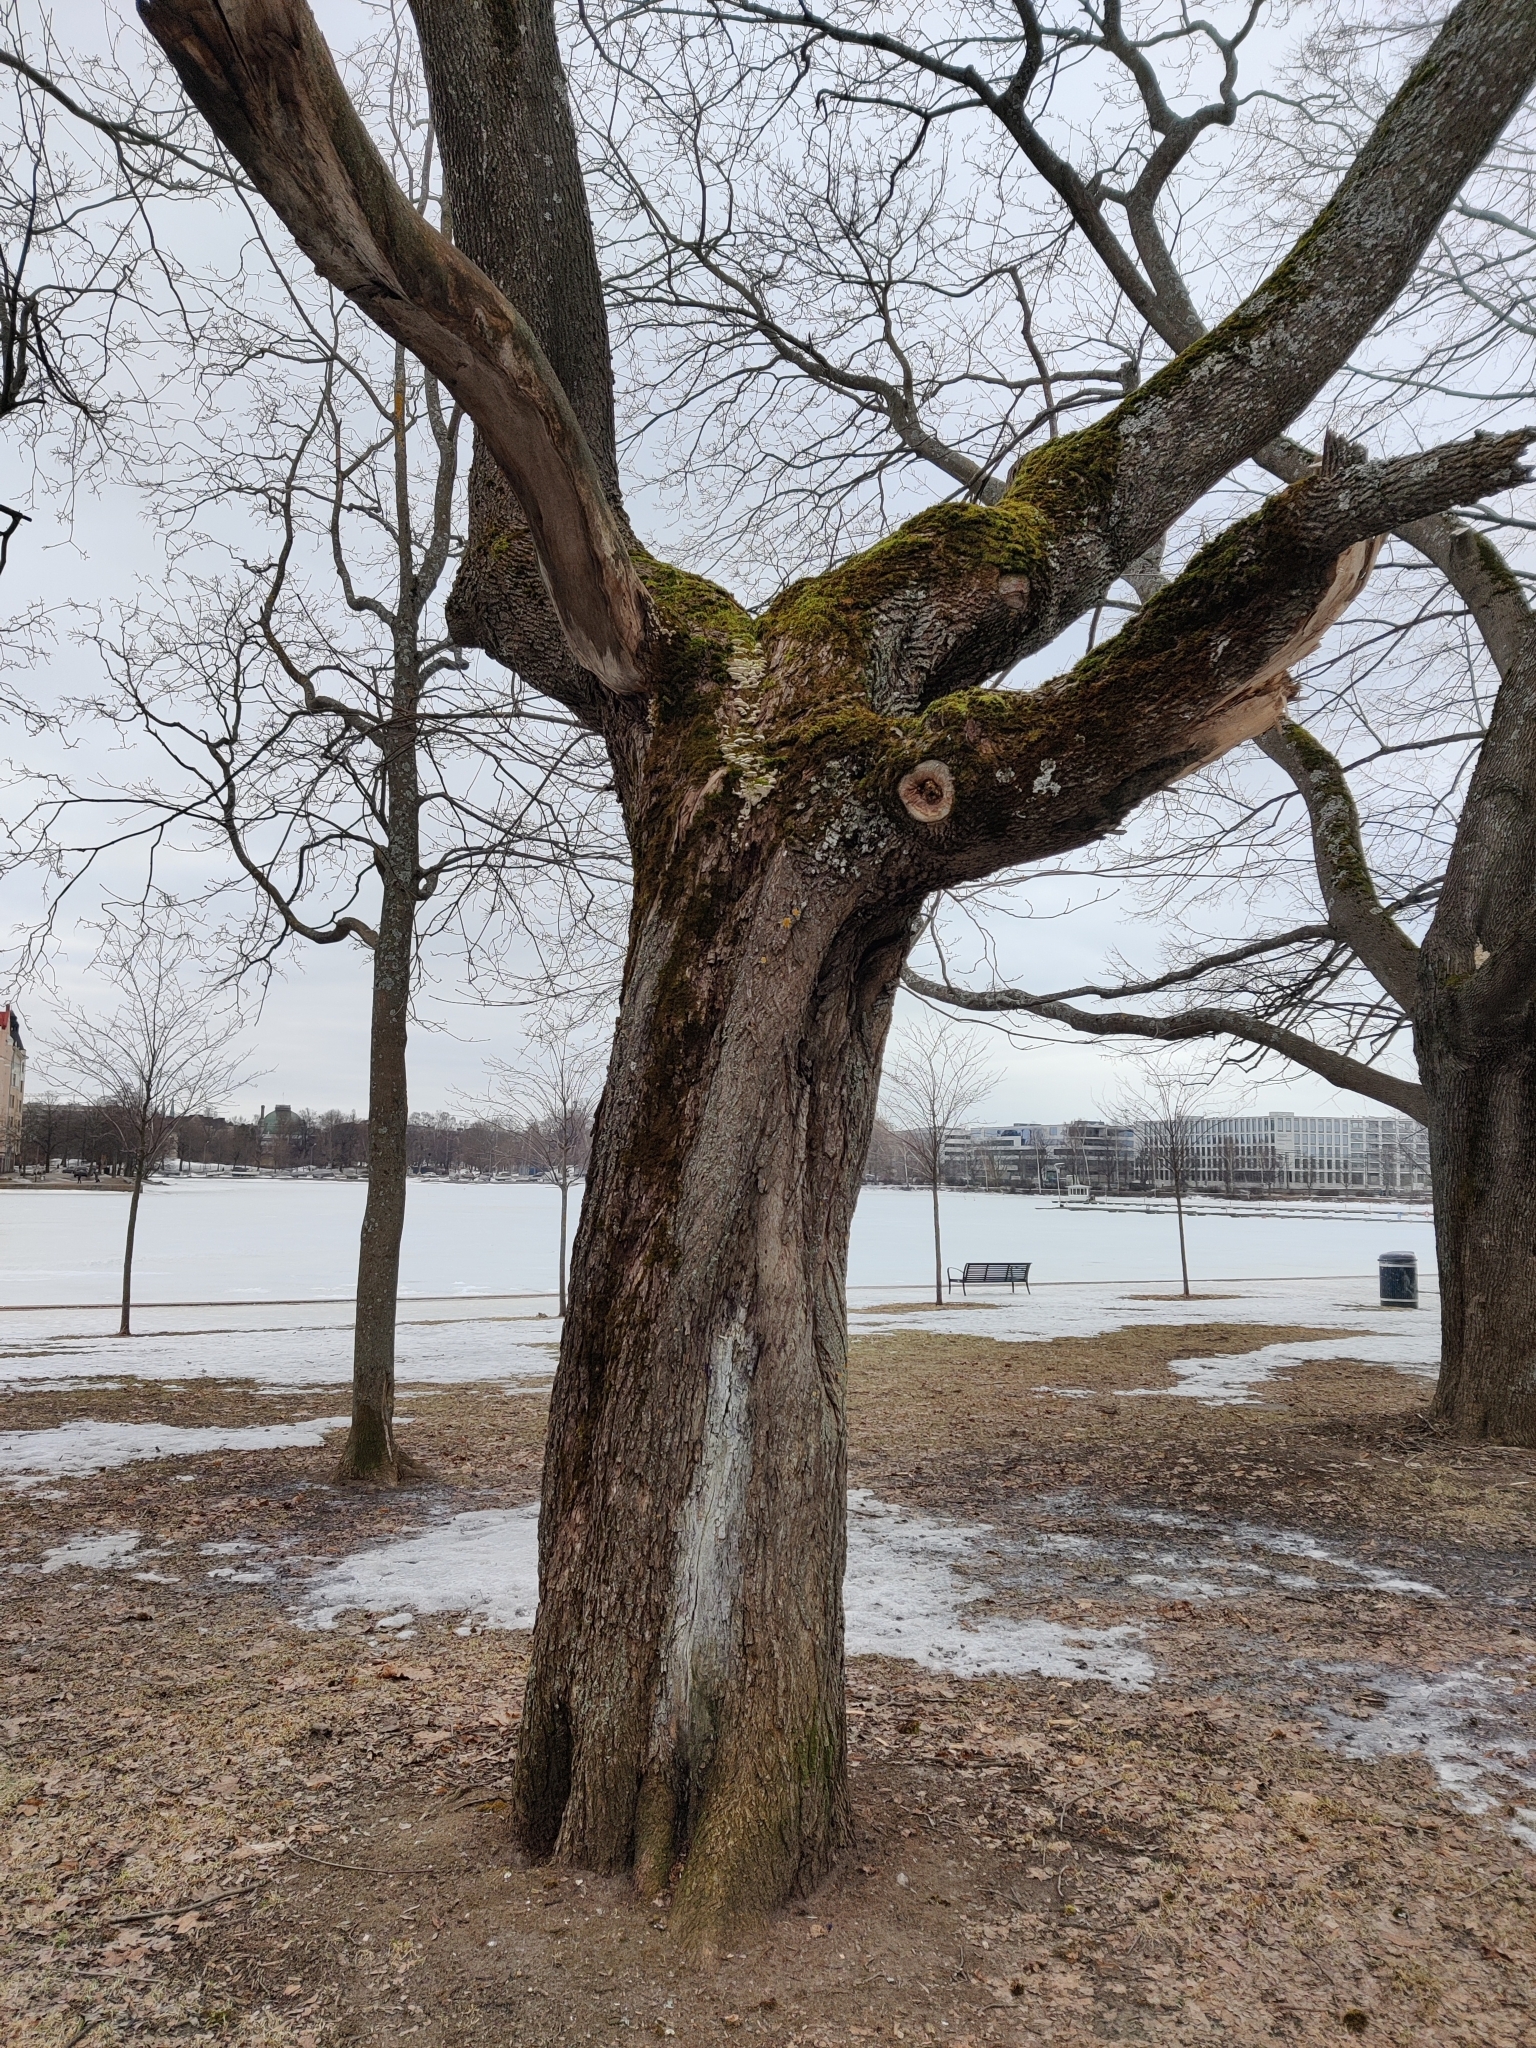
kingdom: Fungi
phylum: Basidiomycota
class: Agaricomycetes
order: Hymenochaetales
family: Oxyporaceae
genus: Oxyporus
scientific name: Oxyporus populinus
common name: Poplar bracket
